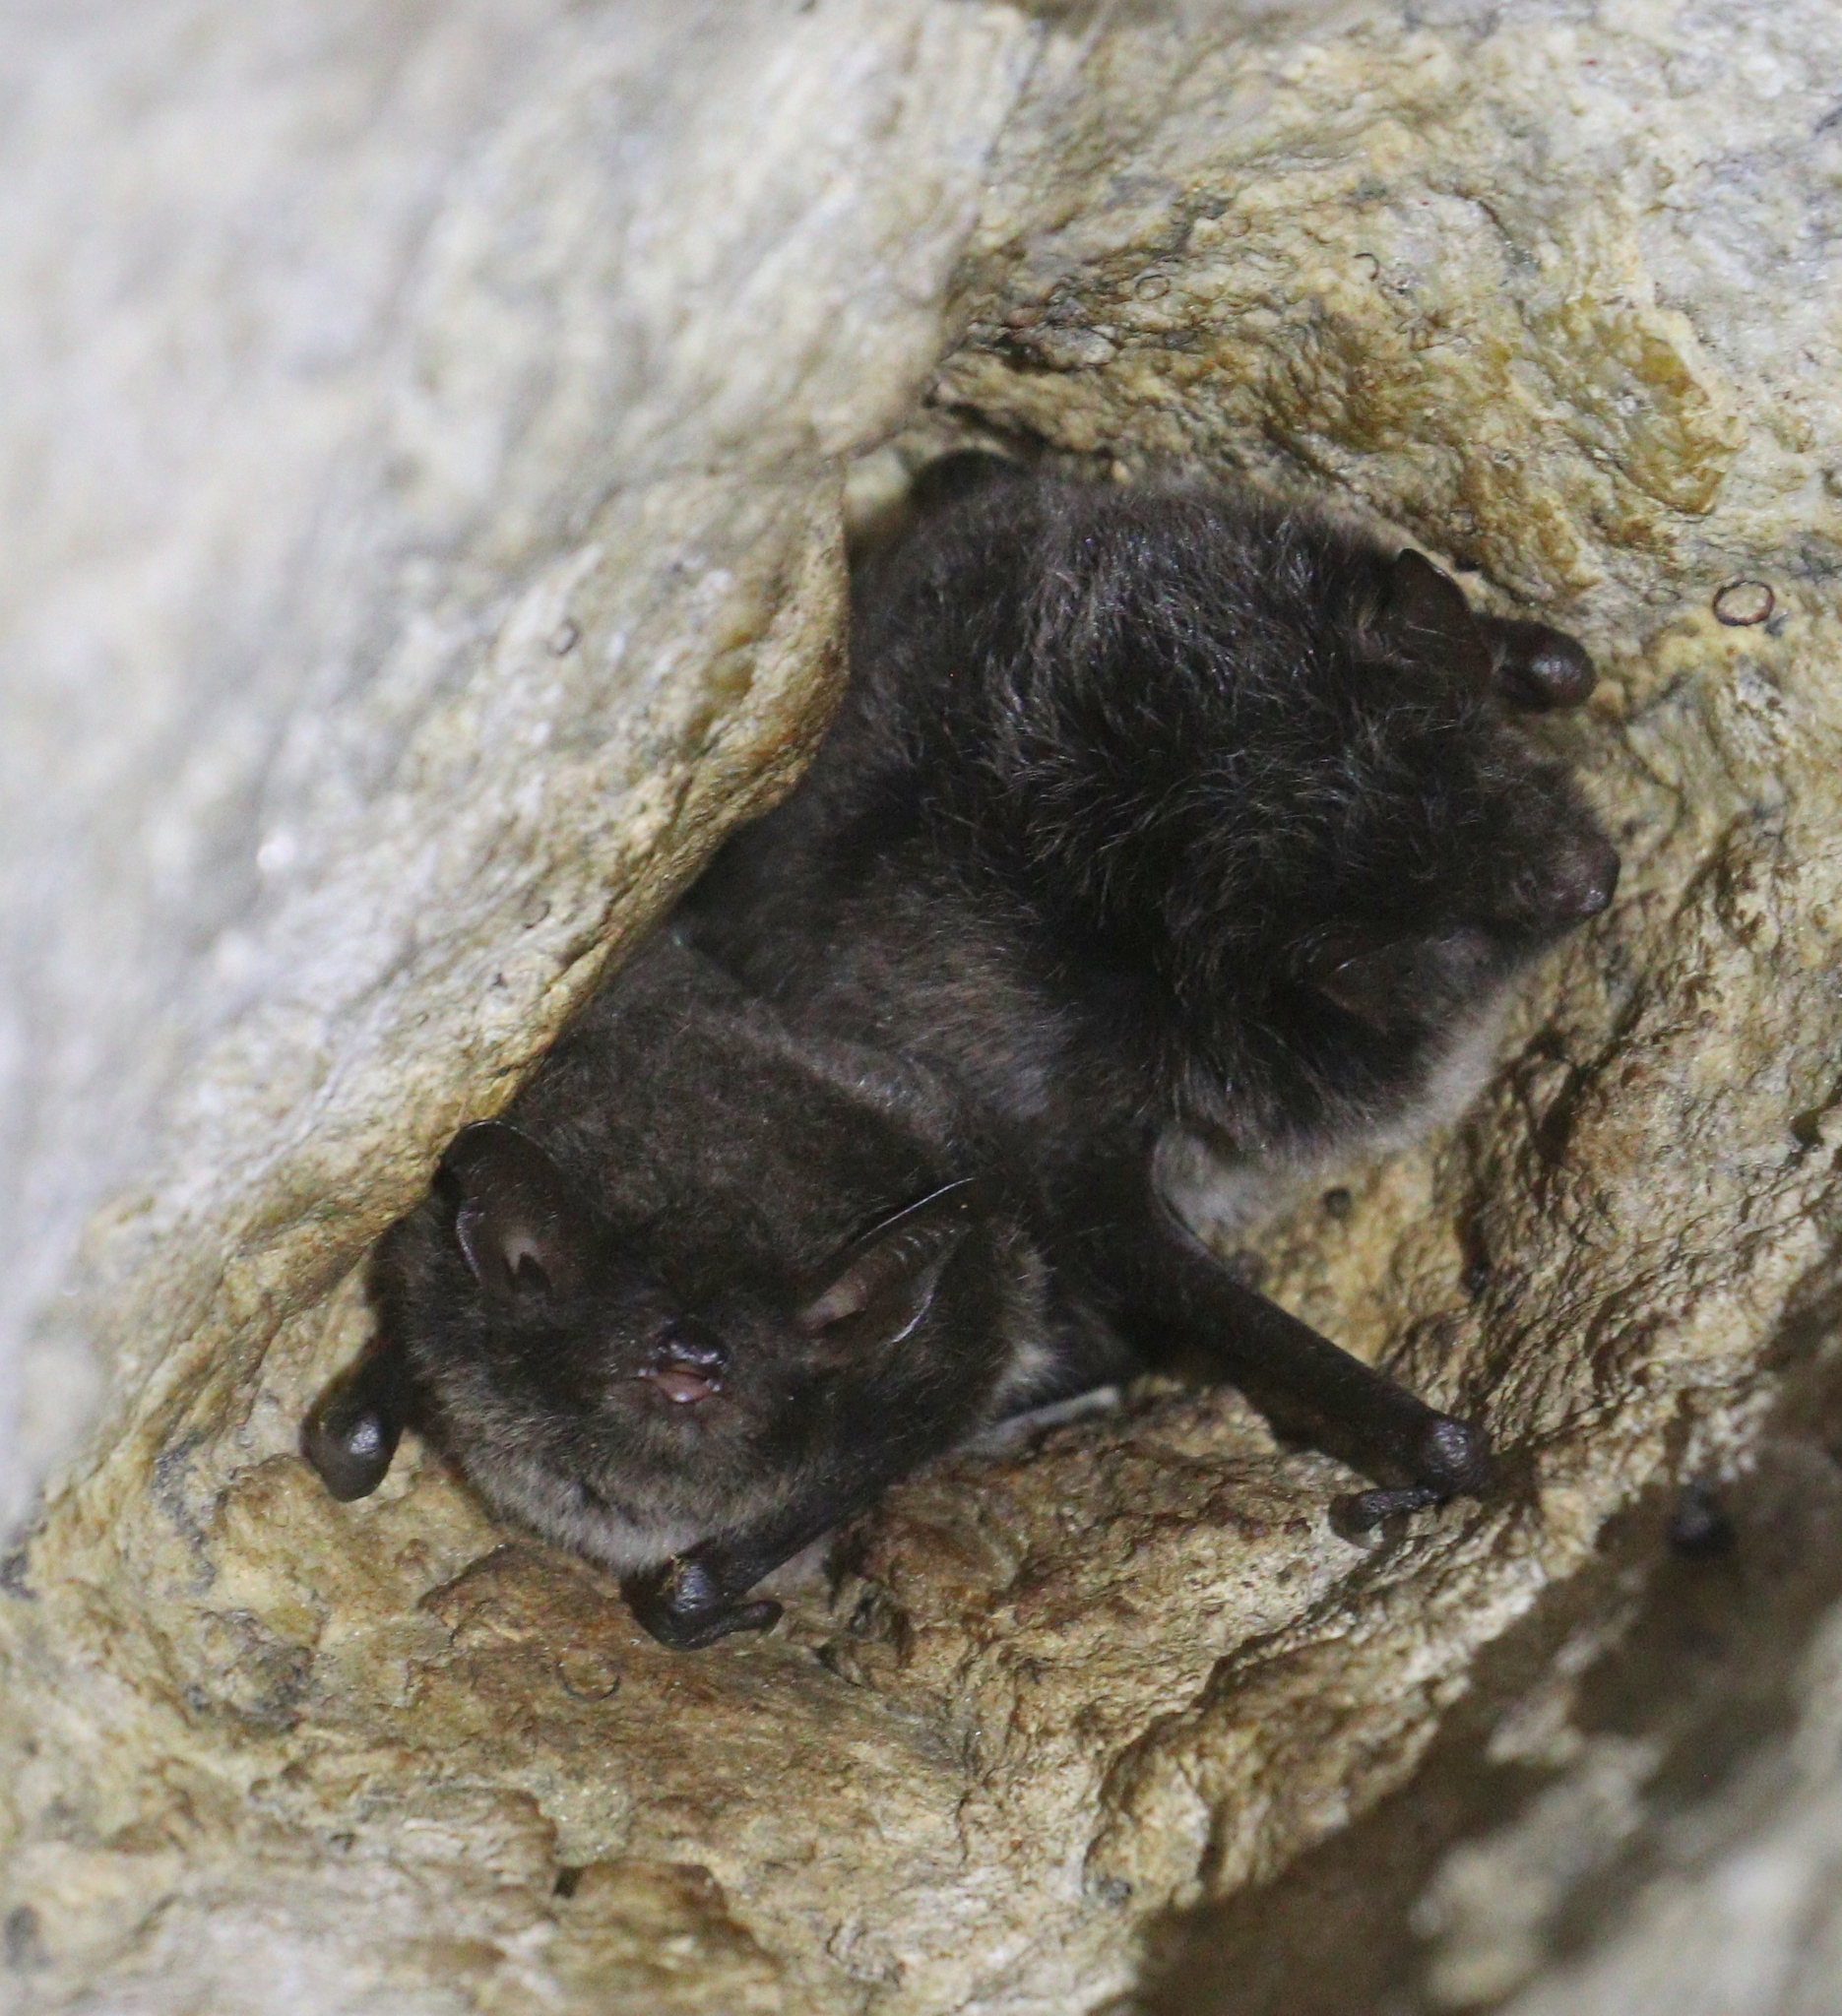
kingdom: Animalia
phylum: Chordata
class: Mammalia
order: Chiroptera
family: Vespertilionidae
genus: Myotis
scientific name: Myotis daubentonii
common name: Daubenton's myotis
